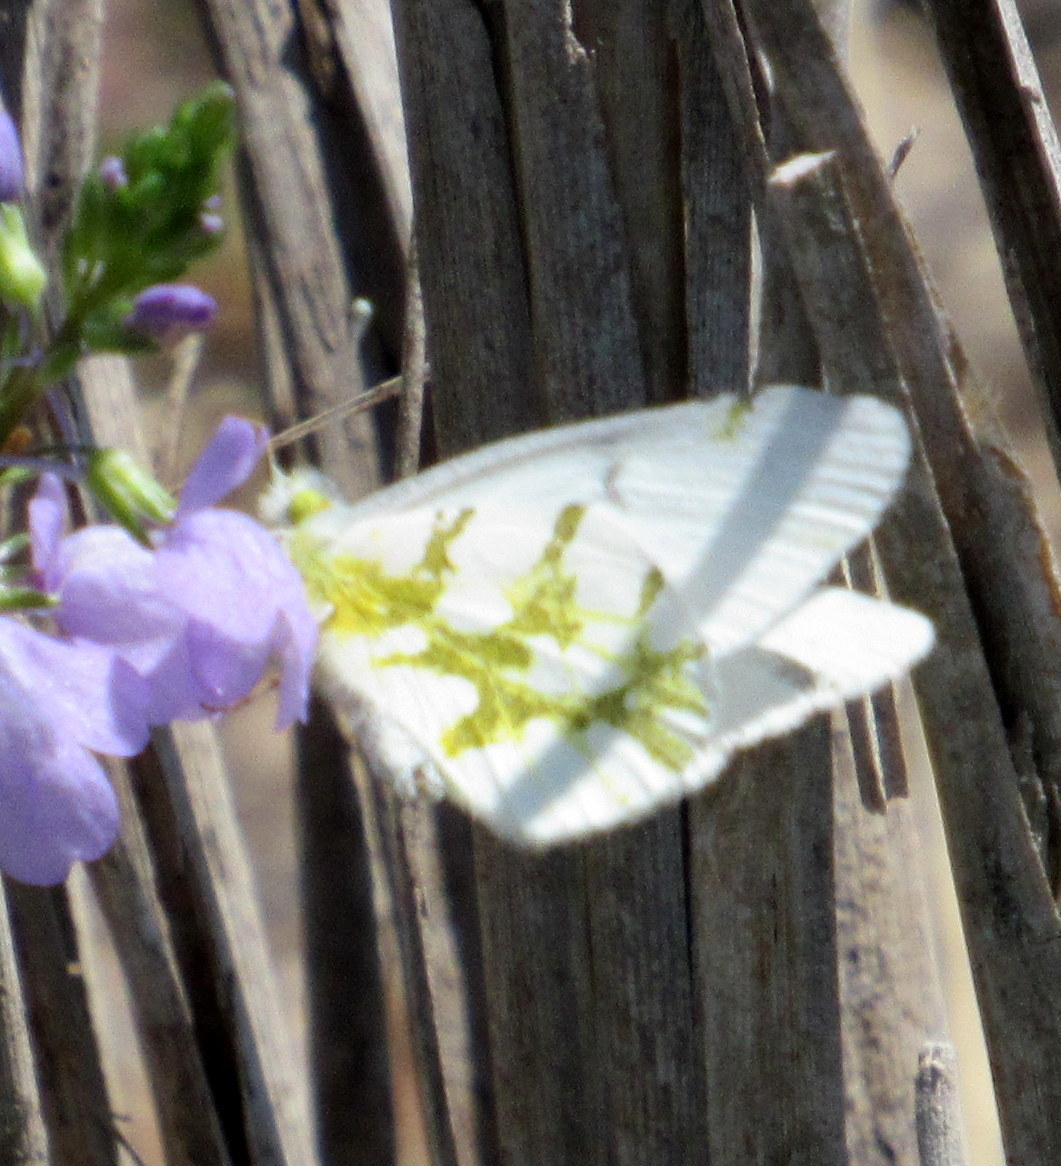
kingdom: Animalia
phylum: Arthropoda
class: Insecta
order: Lepidoptera
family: Pieridae
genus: Euchloe
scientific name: Euchloe olympia
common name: Olympia
